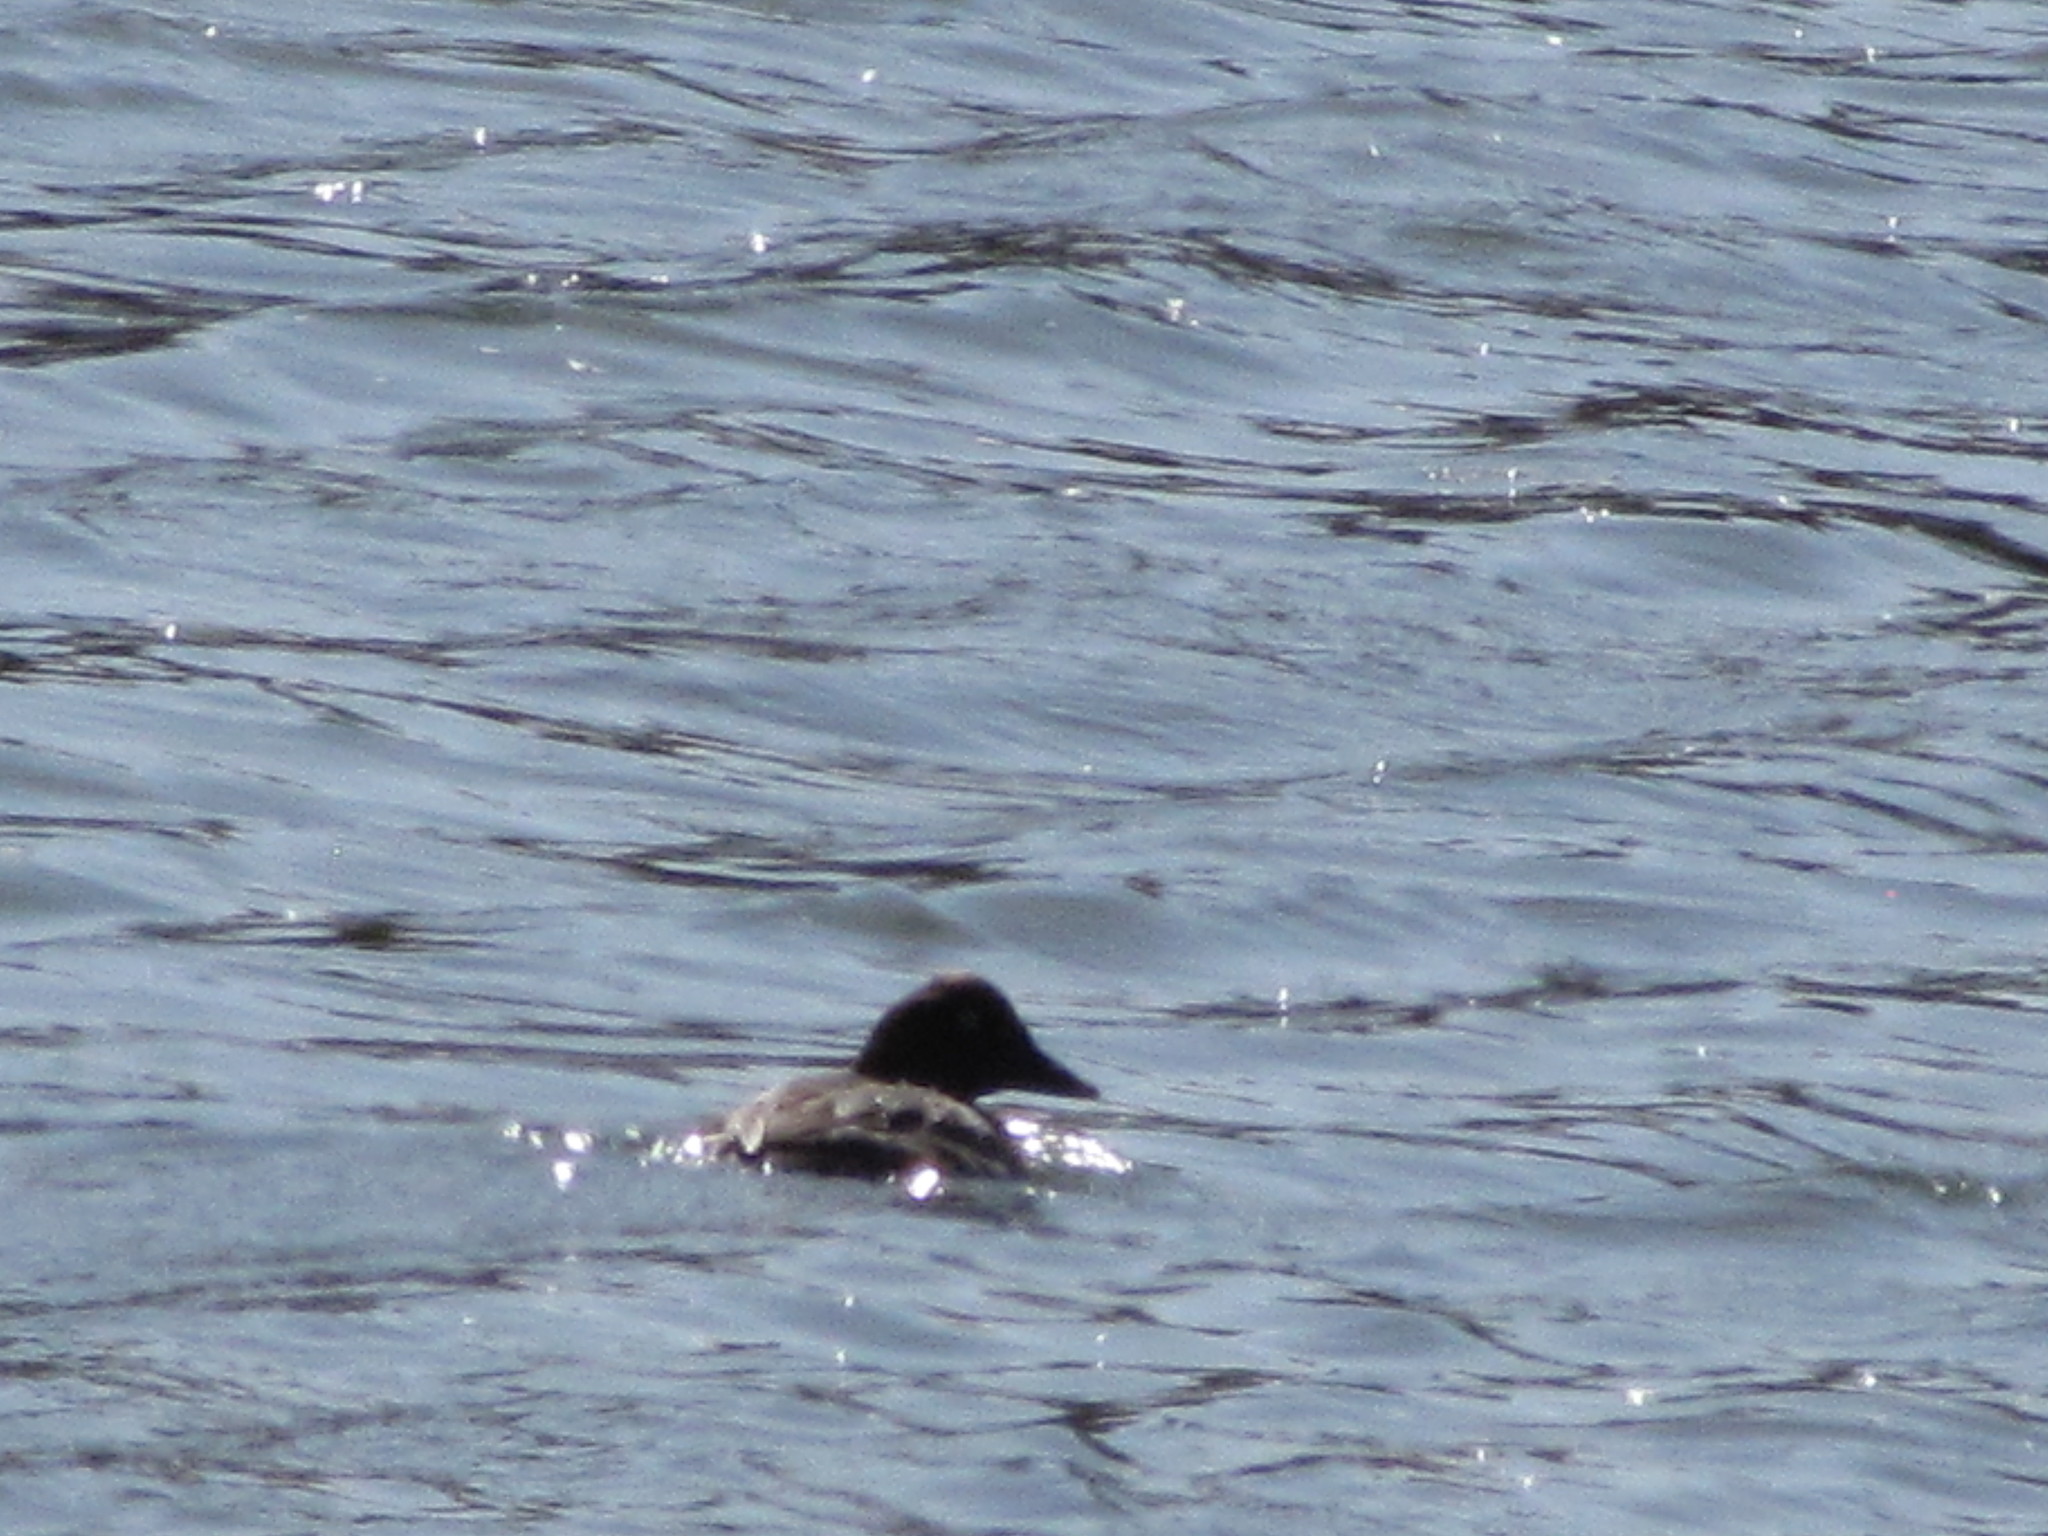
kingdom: Animalia
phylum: Chordata
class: Aves
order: Anseriformes
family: Anatidae
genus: Bucephala
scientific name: Bucephala clangula
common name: Common goldeneye
